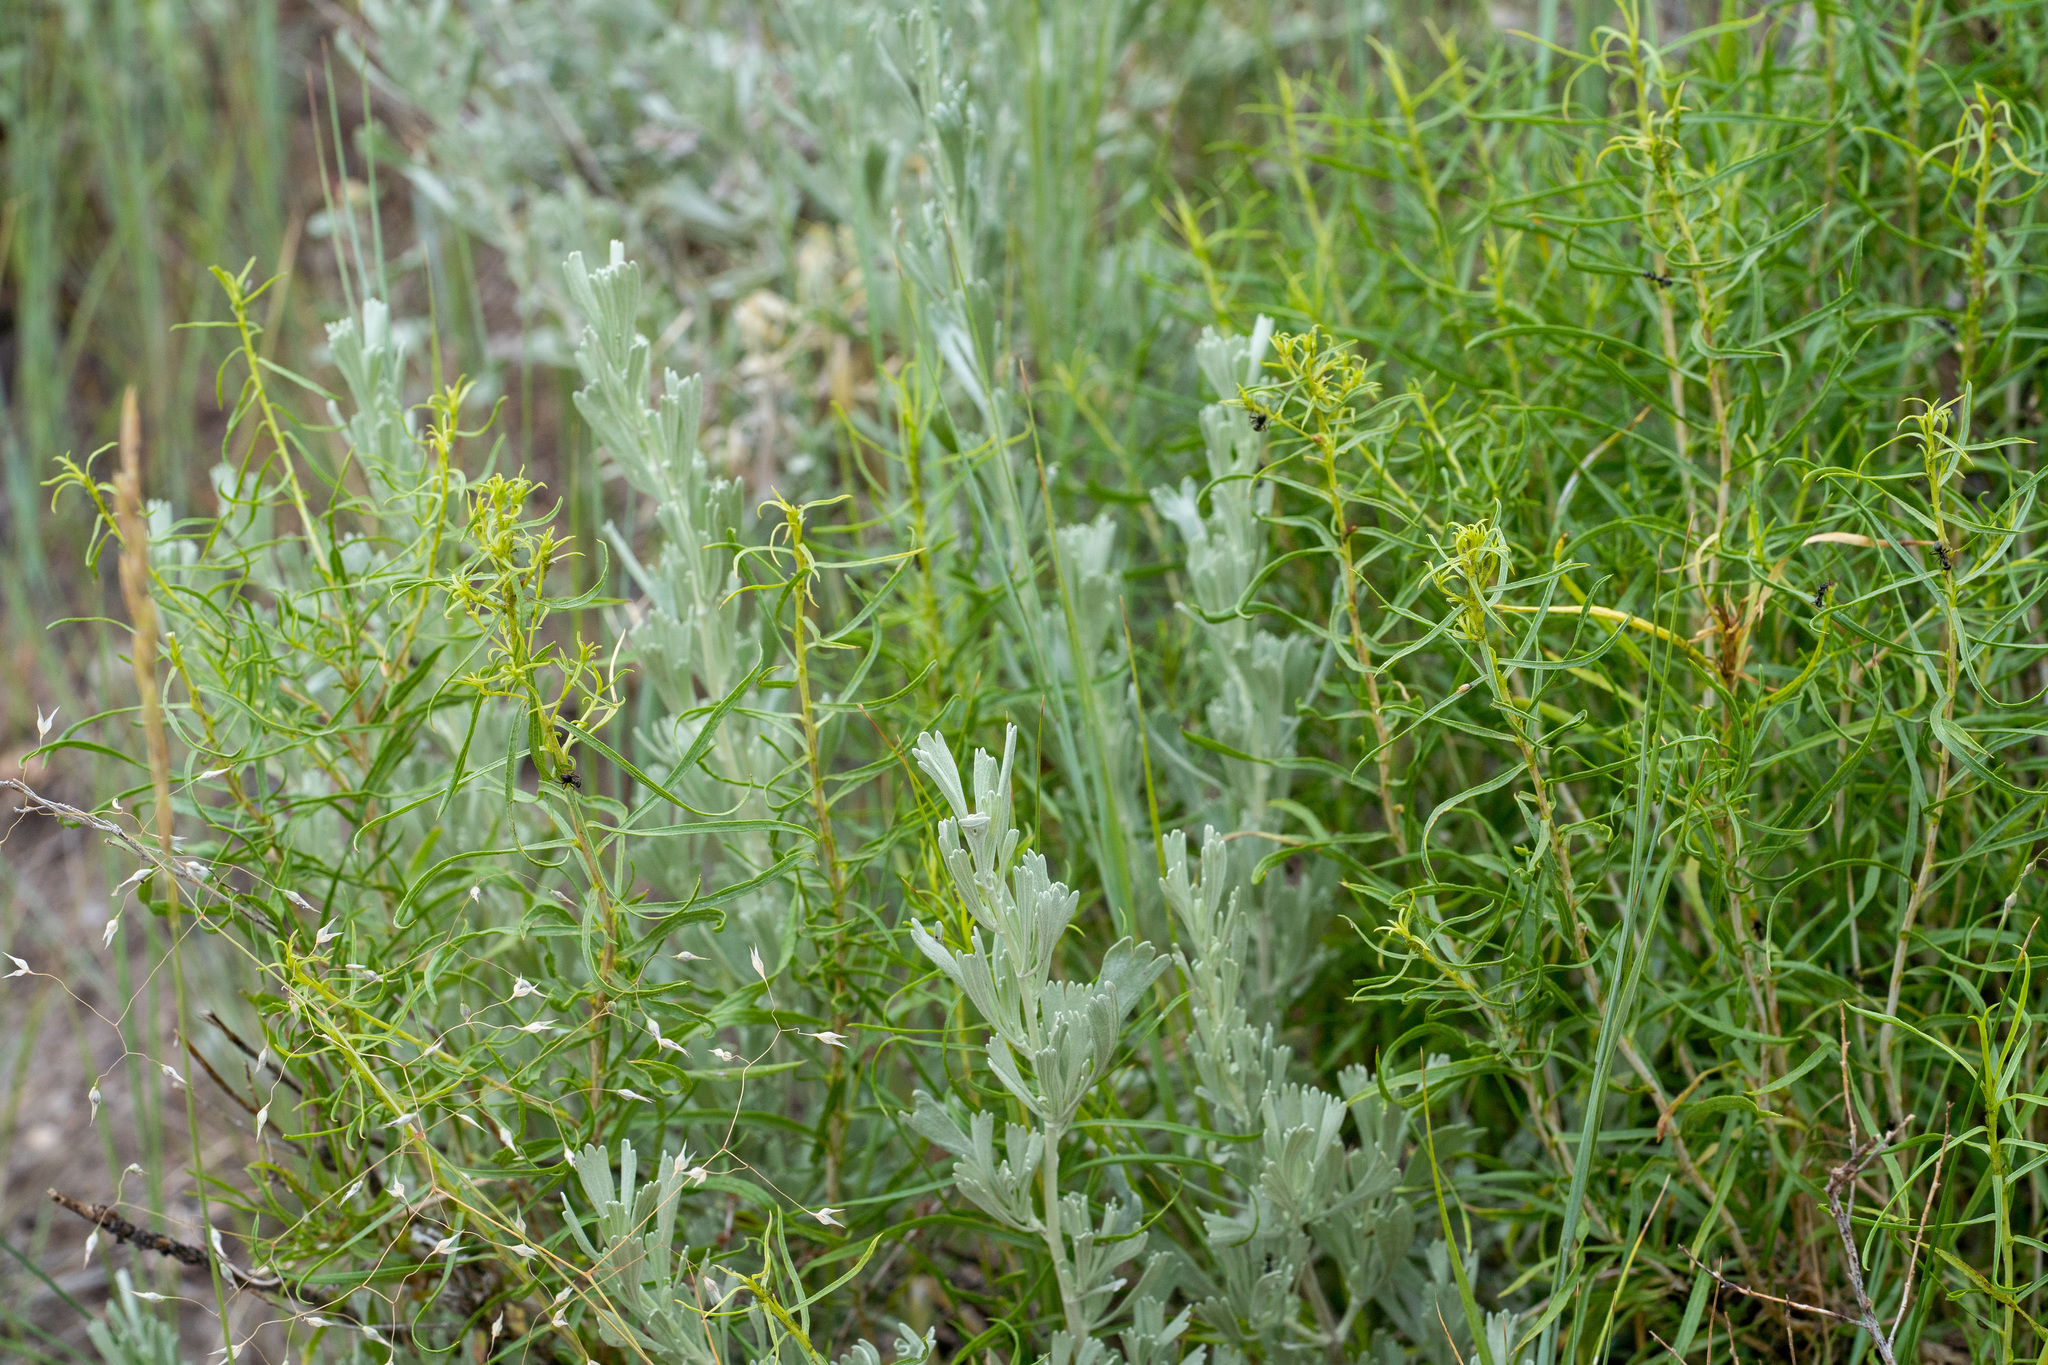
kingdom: Plantae
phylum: Tracheophyta
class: Magnoliopsida
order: Asterales
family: Asteraceae
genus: Chrysothamnus
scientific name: Chrysothamnus viscidiflorus
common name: Yellow rabbitbrush
